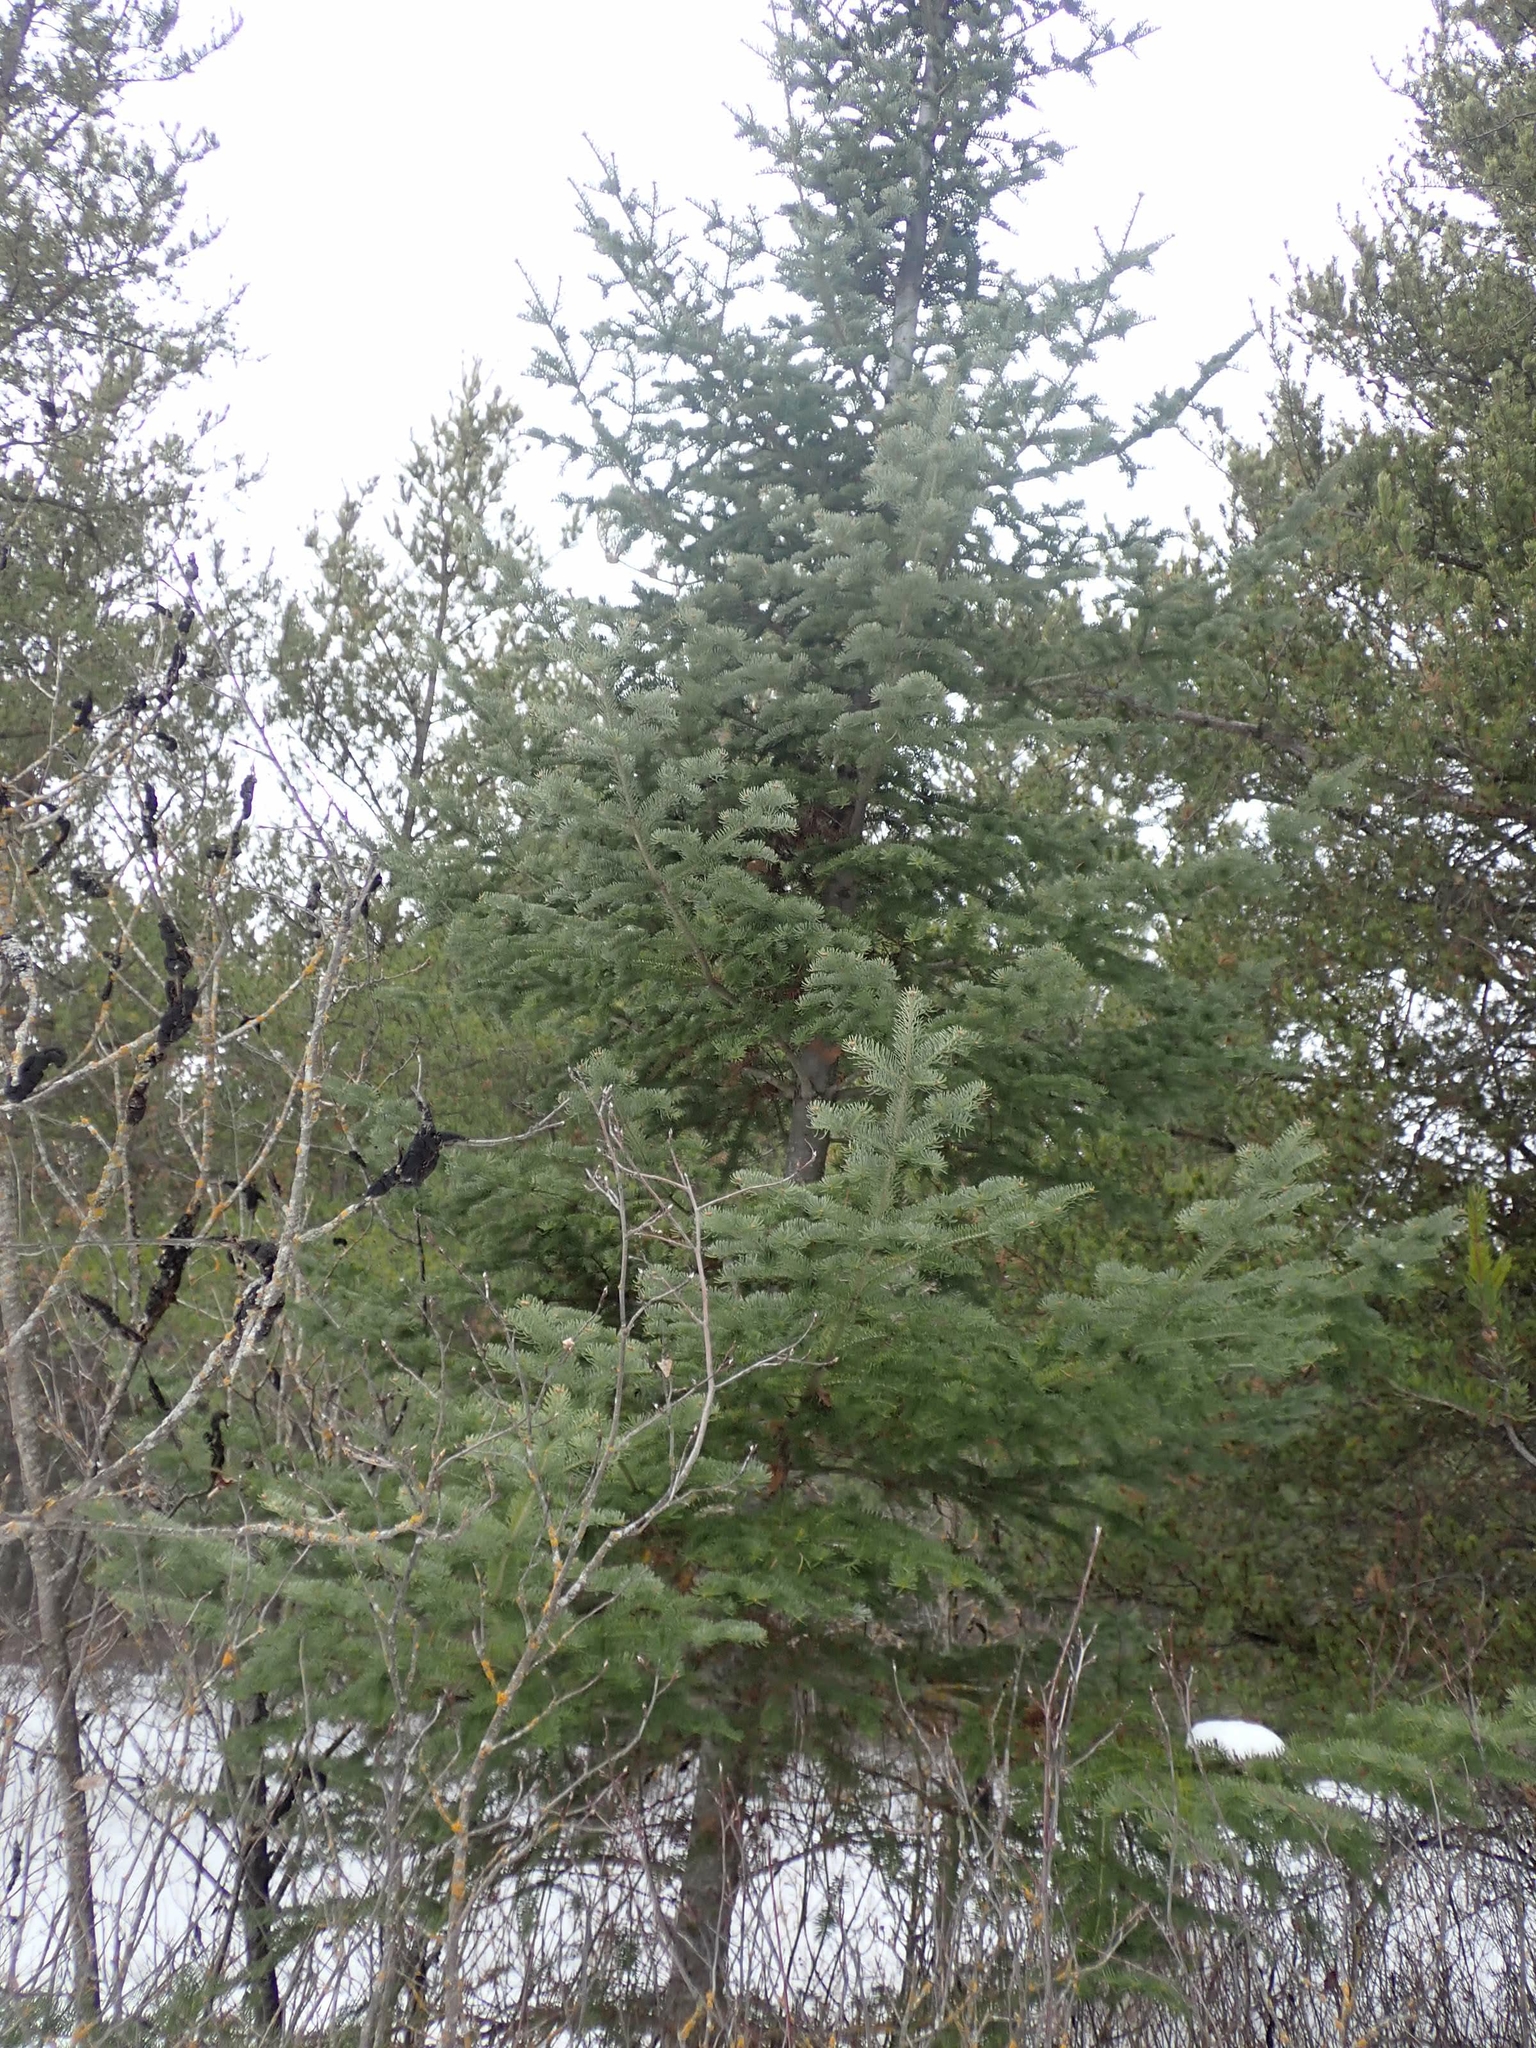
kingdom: Plantae
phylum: Tracheophyta
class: Pinopsida
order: Pinales
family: Pinaceae
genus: Picea
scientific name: Picea glauca
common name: White spruce
